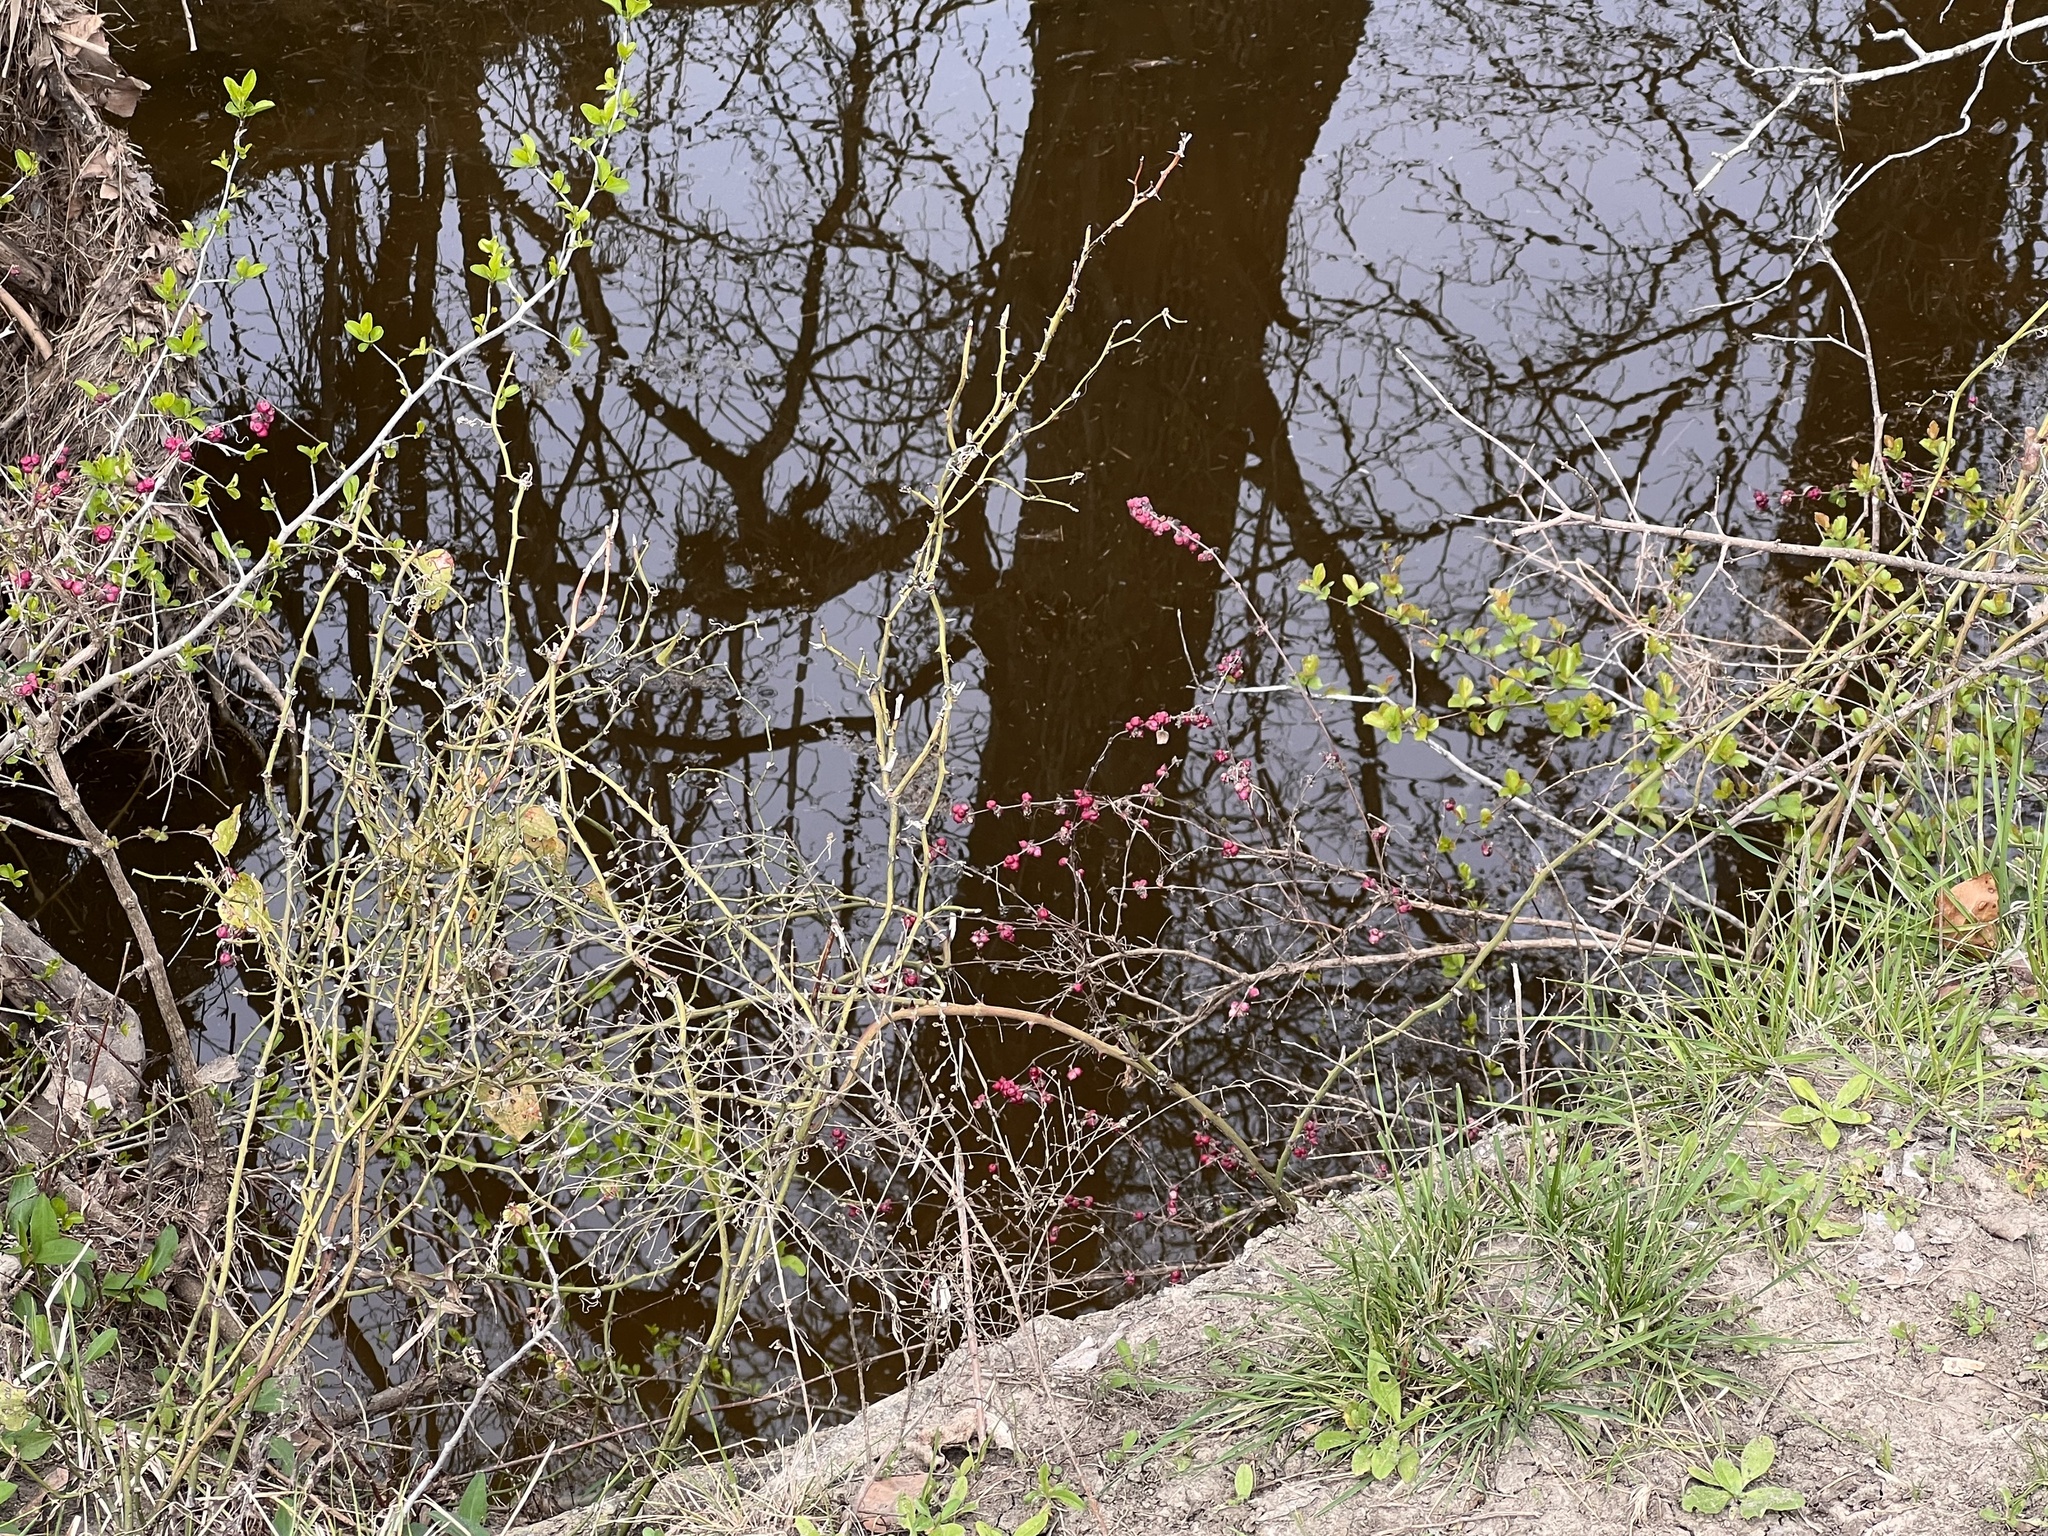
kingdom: Plantae
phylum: Tracheophyta
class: Magnoliopsida
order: Dipsacales
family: Caprifoliaceae
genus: Symphoricarpos
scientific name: Symphoricarpos orbiculatus
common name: Coralberry
